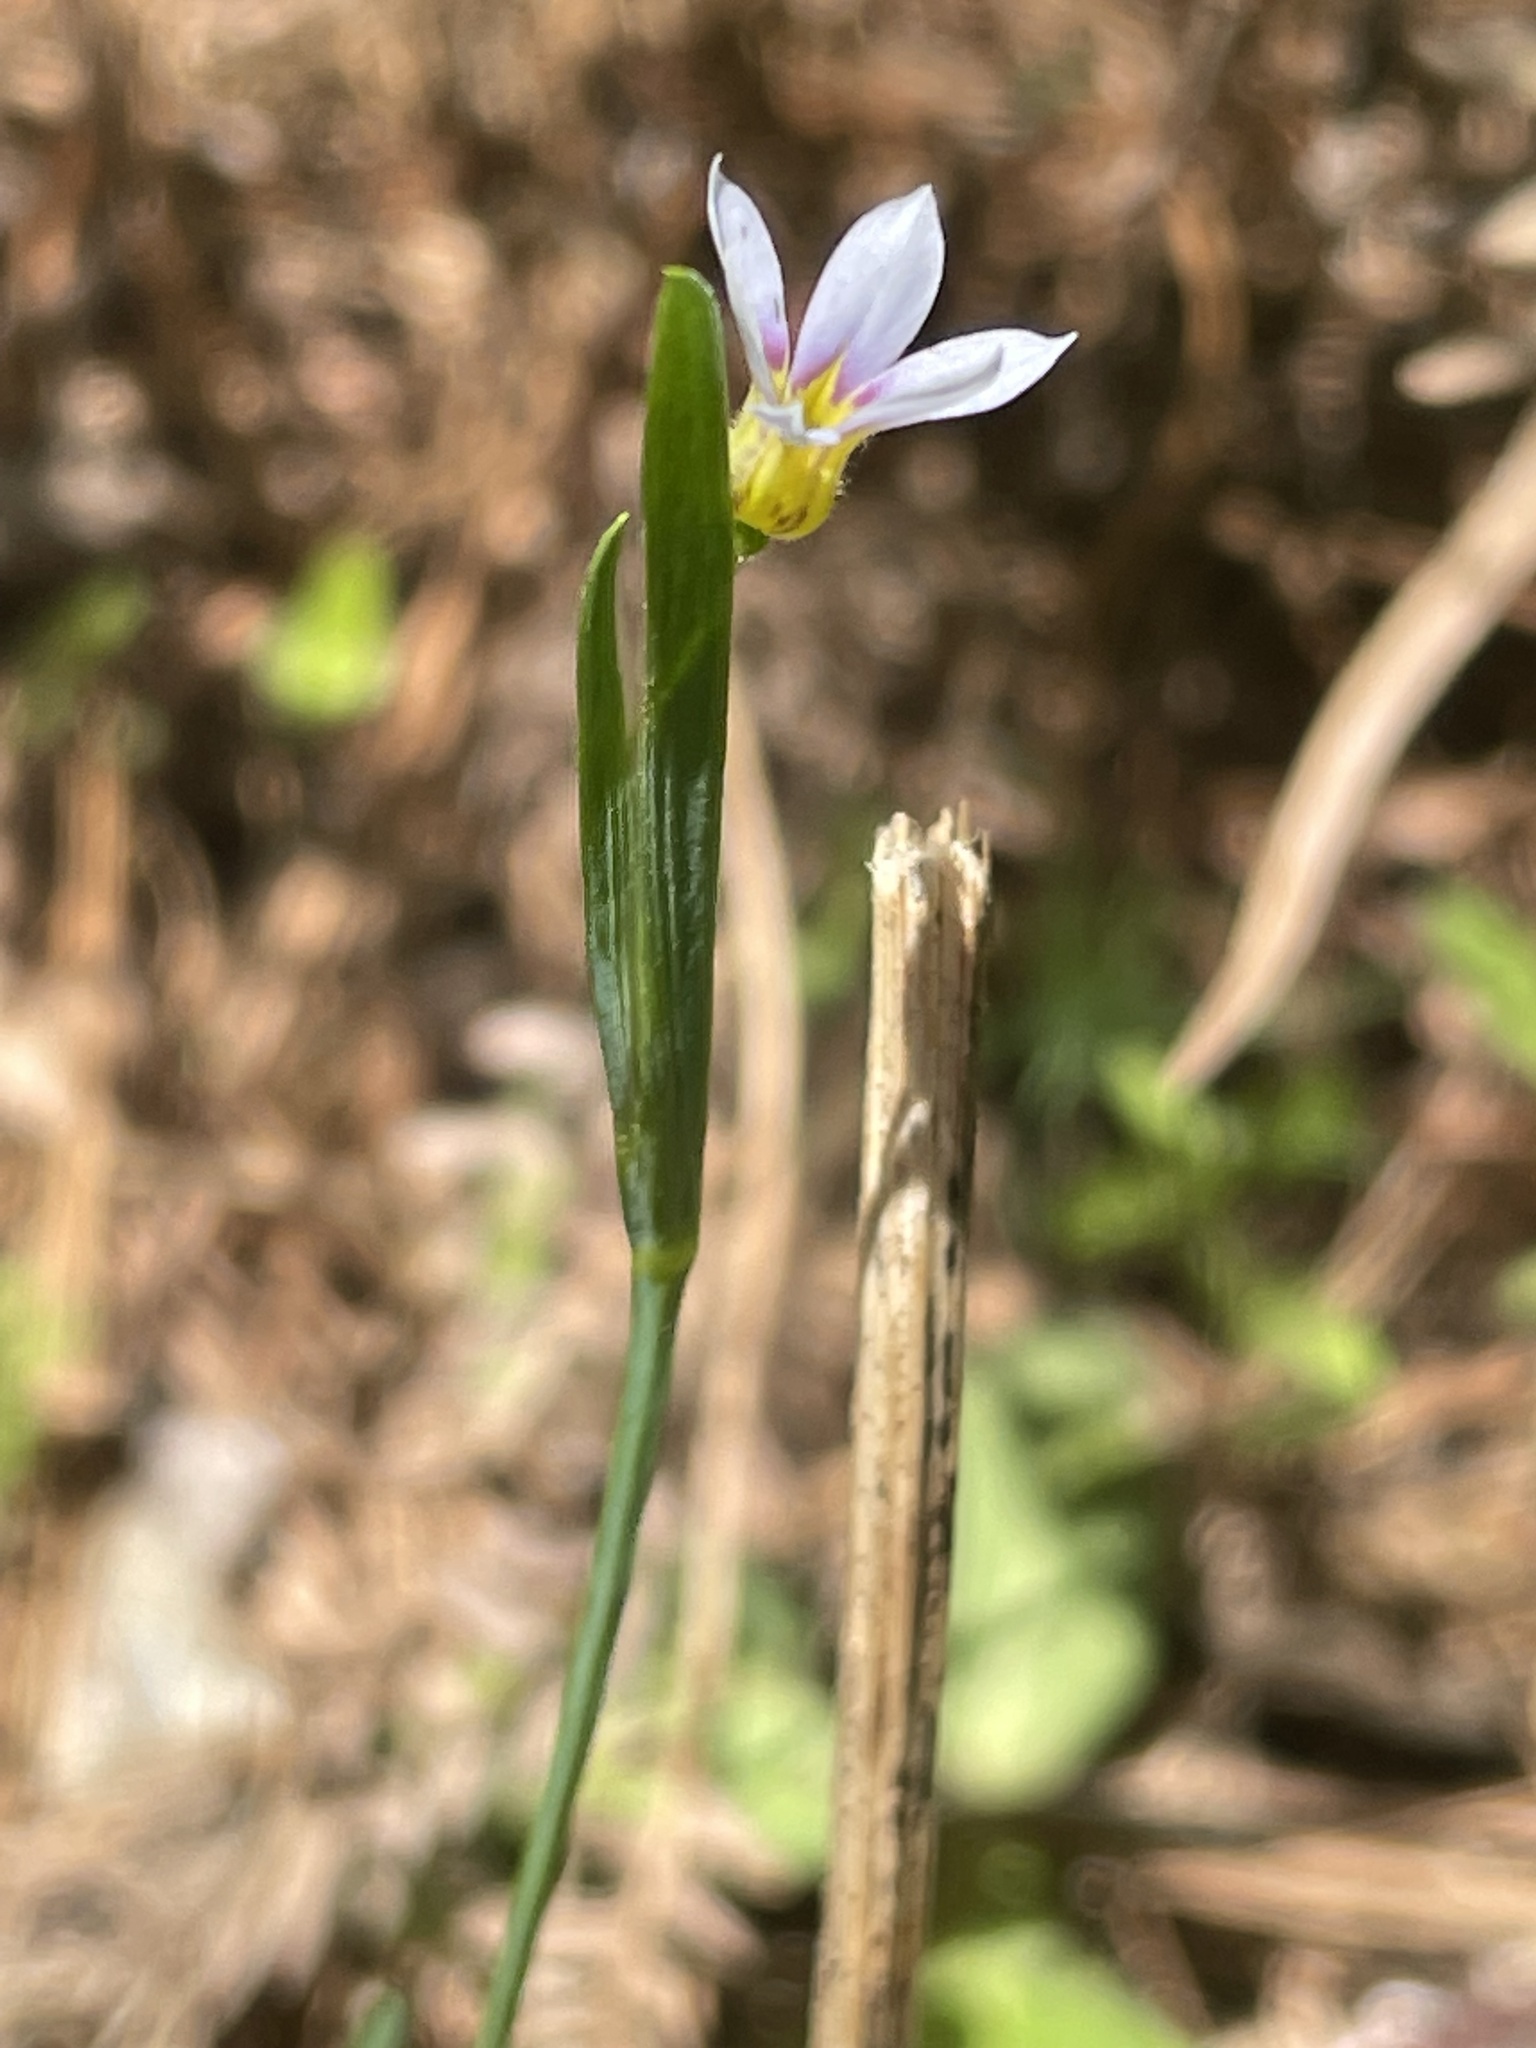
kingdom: Plantae
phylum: Tracheophyta
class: Liliopsida
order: Asparagales
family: Iridaceae
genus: Sisyrinchium
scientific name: Sisyrinchium micranthum
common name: Bermuda pigroot
